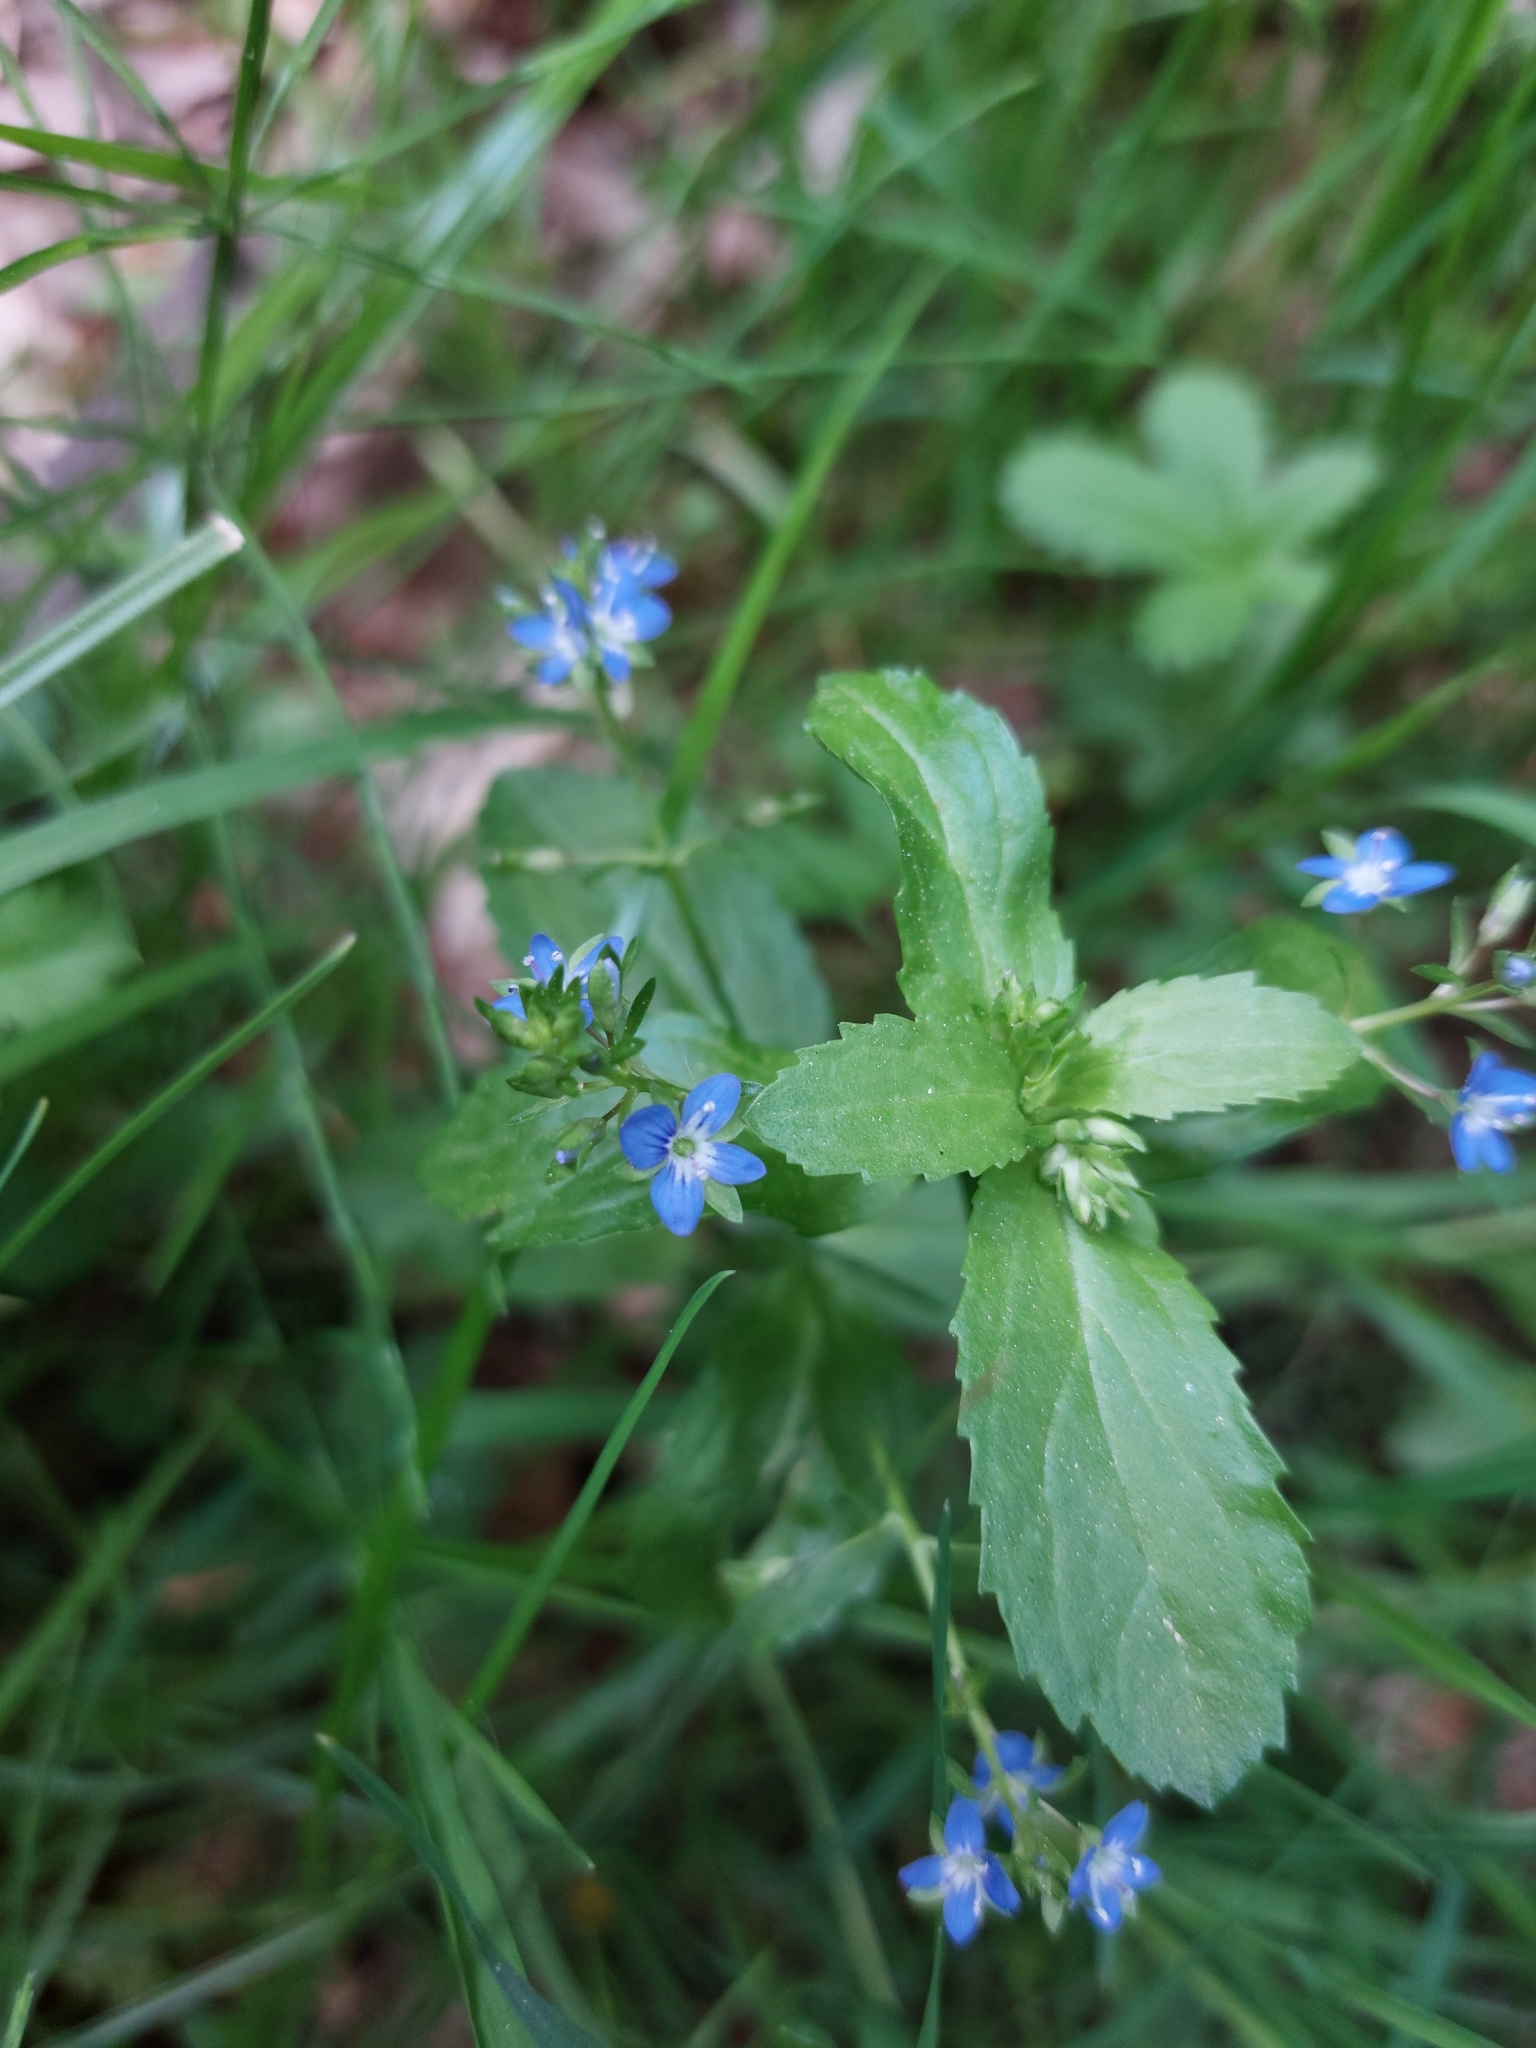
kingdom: Plantae
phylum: Tracheophyta
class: Magnoliopsida
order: Lamiales
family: Plantaginaceae
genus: Veronica
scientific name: Veronica beccabunga
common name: Brooklime
